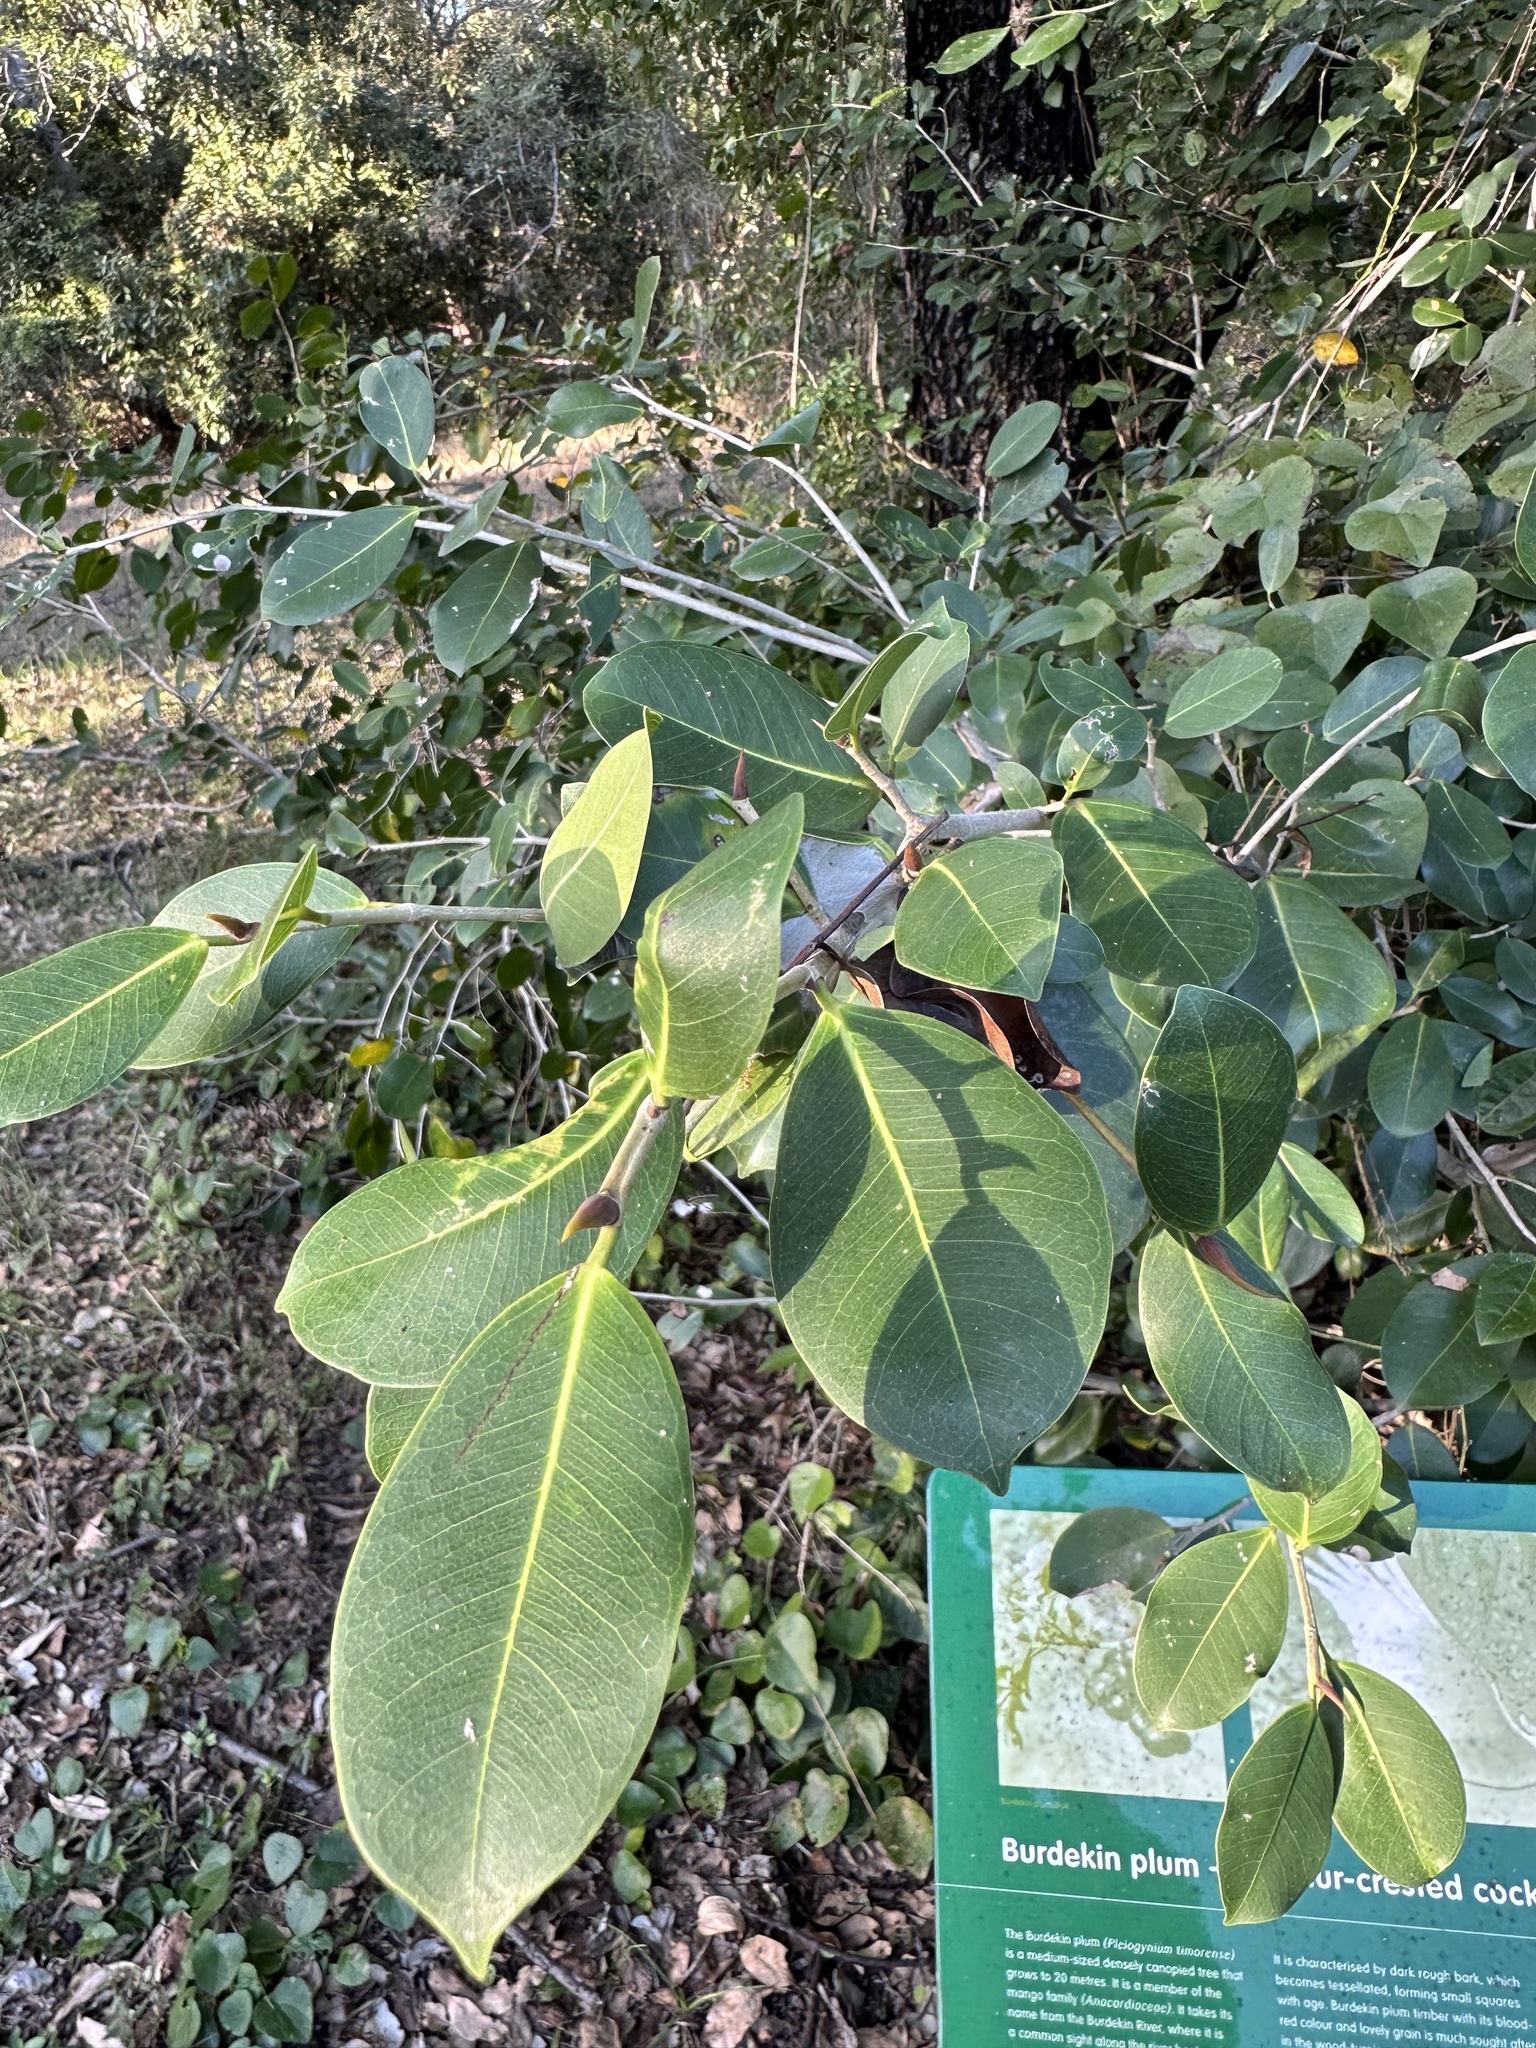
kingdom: Plantae
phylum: Tracheophyta
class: Magnoliopsida
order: Rosales
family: Moraceae
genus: Ficus
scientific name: Ficus microcarpa
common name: Chinese banyan
